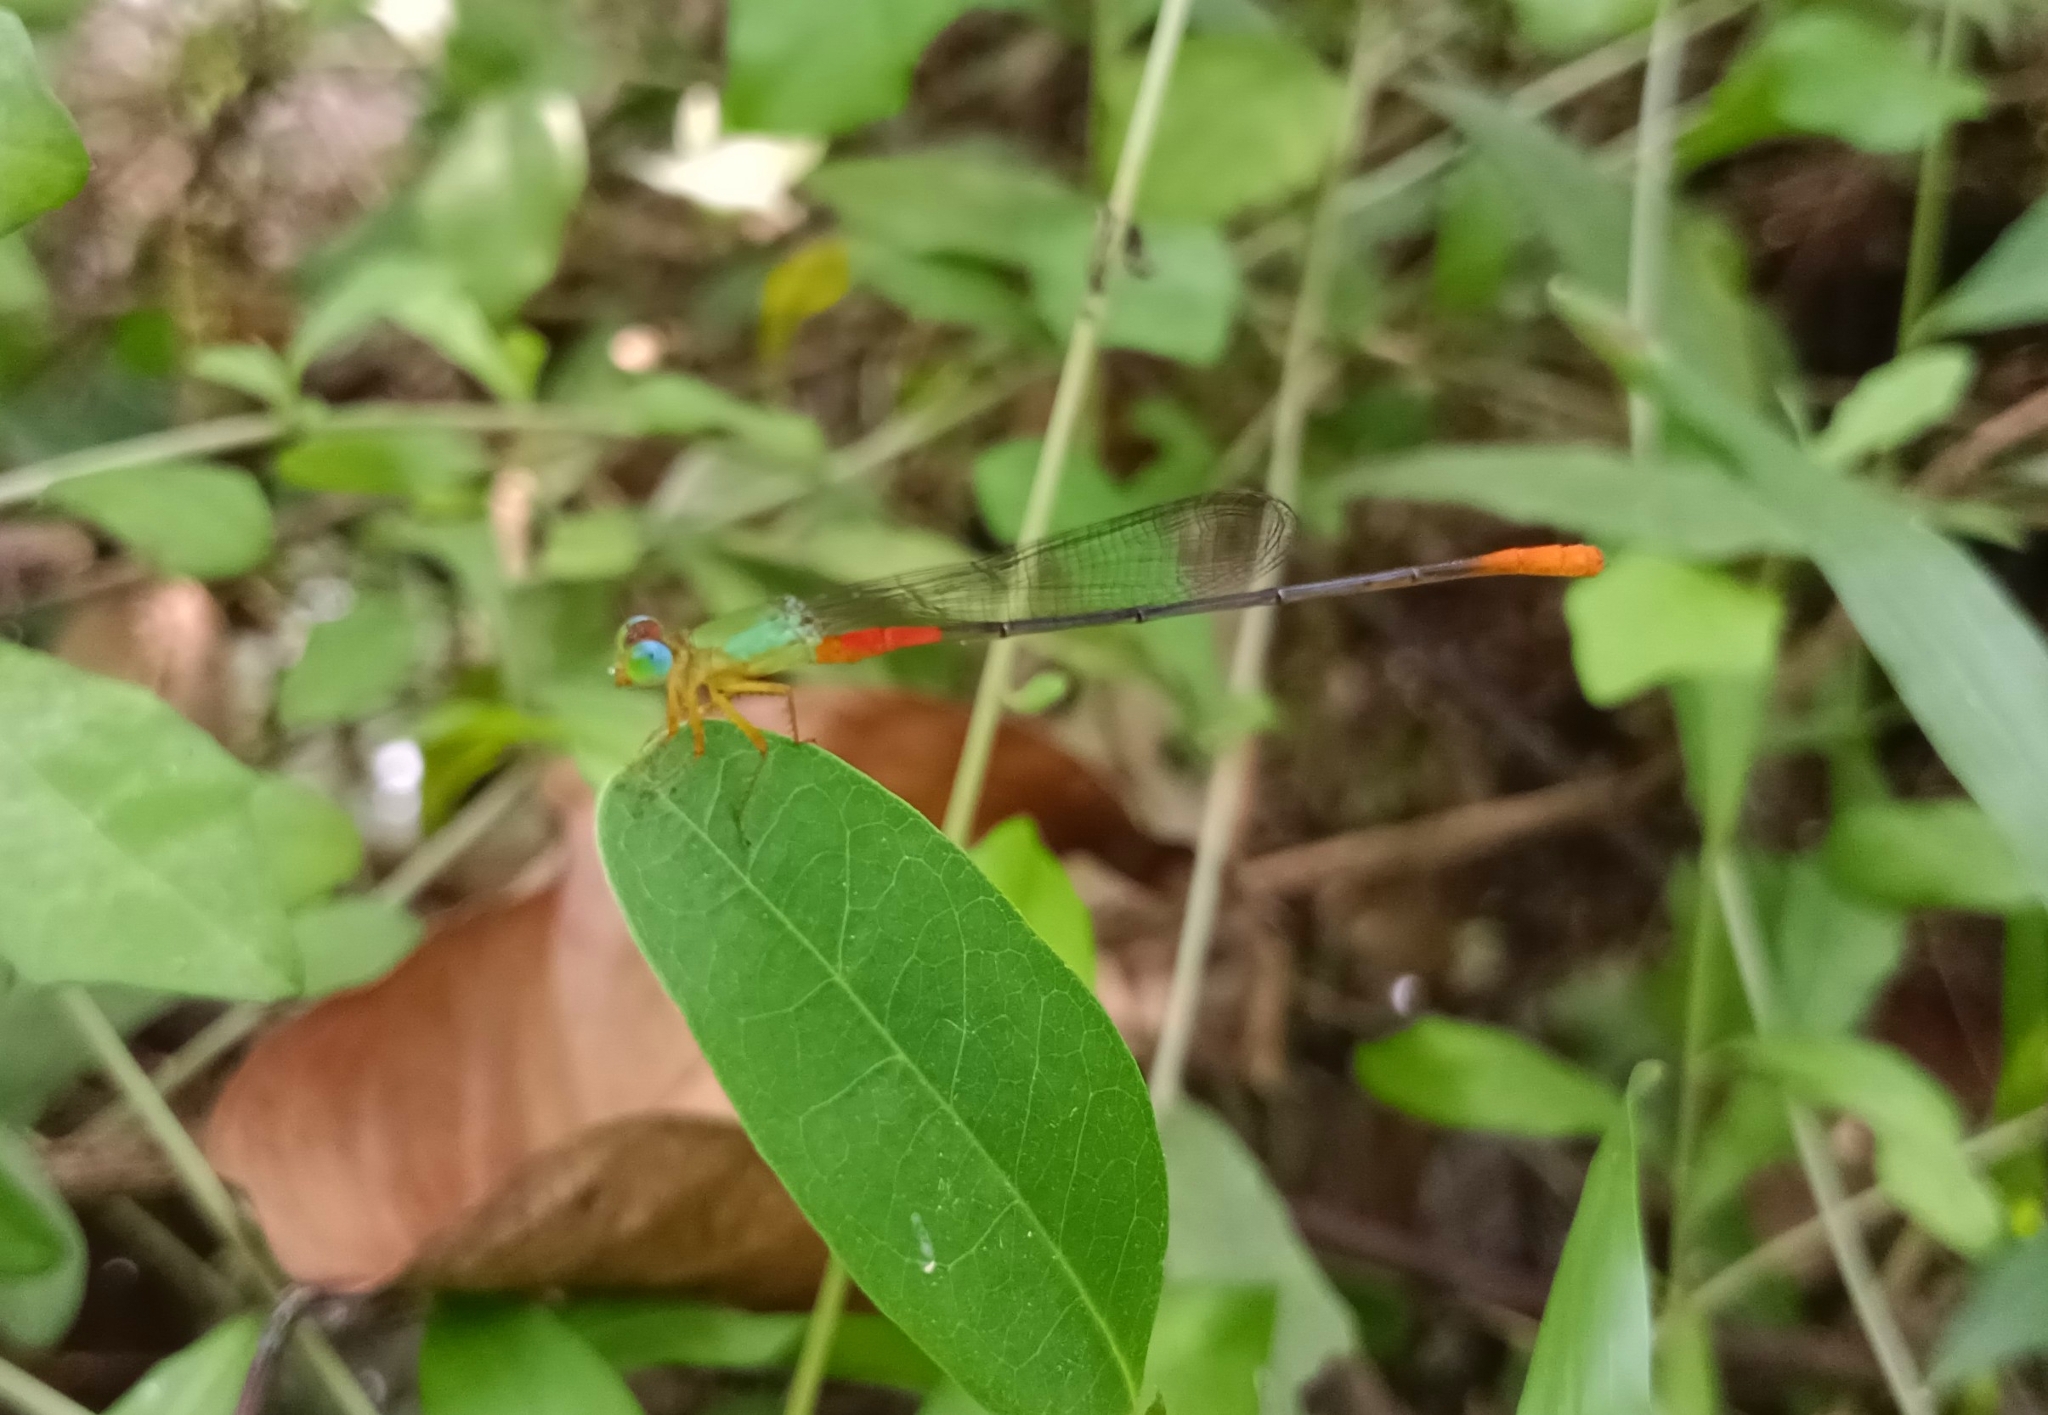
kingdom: Animalia
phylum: Arthropoda
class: Insecta
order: Odonata
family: Coenagrionidae
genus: Ceriagrion
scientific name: Ceriagrion cerinorubellum
